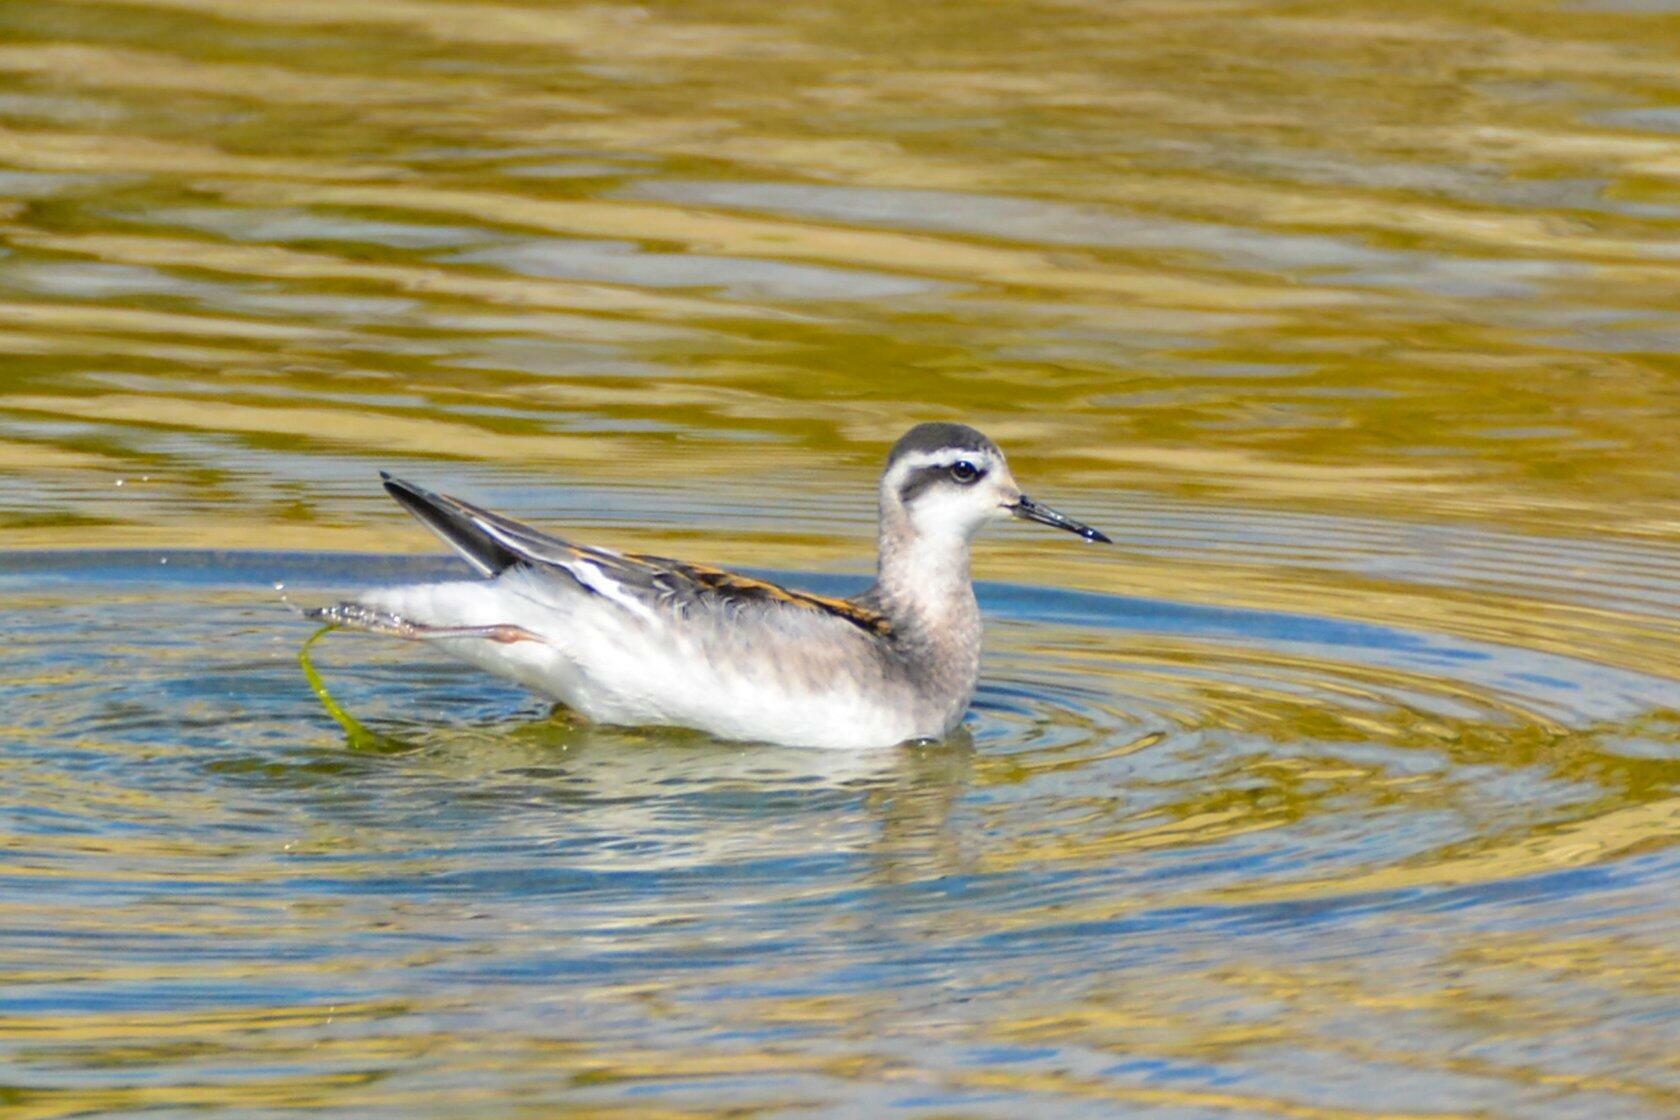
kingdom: Animalia
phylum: Chordata
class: Aves
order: Charadriiformes
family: Scolopacidae
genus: Phalaropus
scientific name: Phalaropus lobatus
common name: Red-necked phalarope
